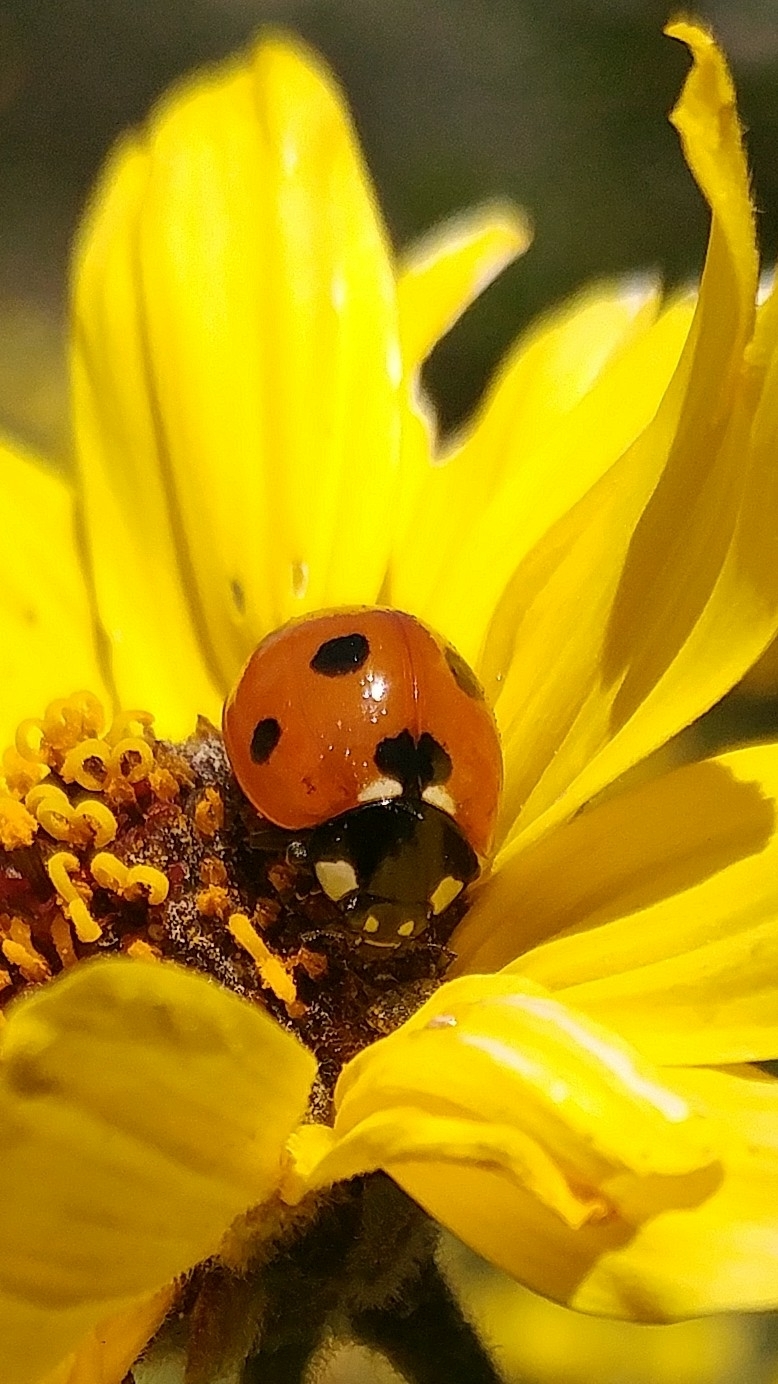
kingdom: Animalia
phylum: Arthropoda
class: Insecta
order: Coleoptera
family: Coccinellidae
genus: Coccinella
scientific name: Coccinella septempunctata
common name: Sevenspotted lady beetle
